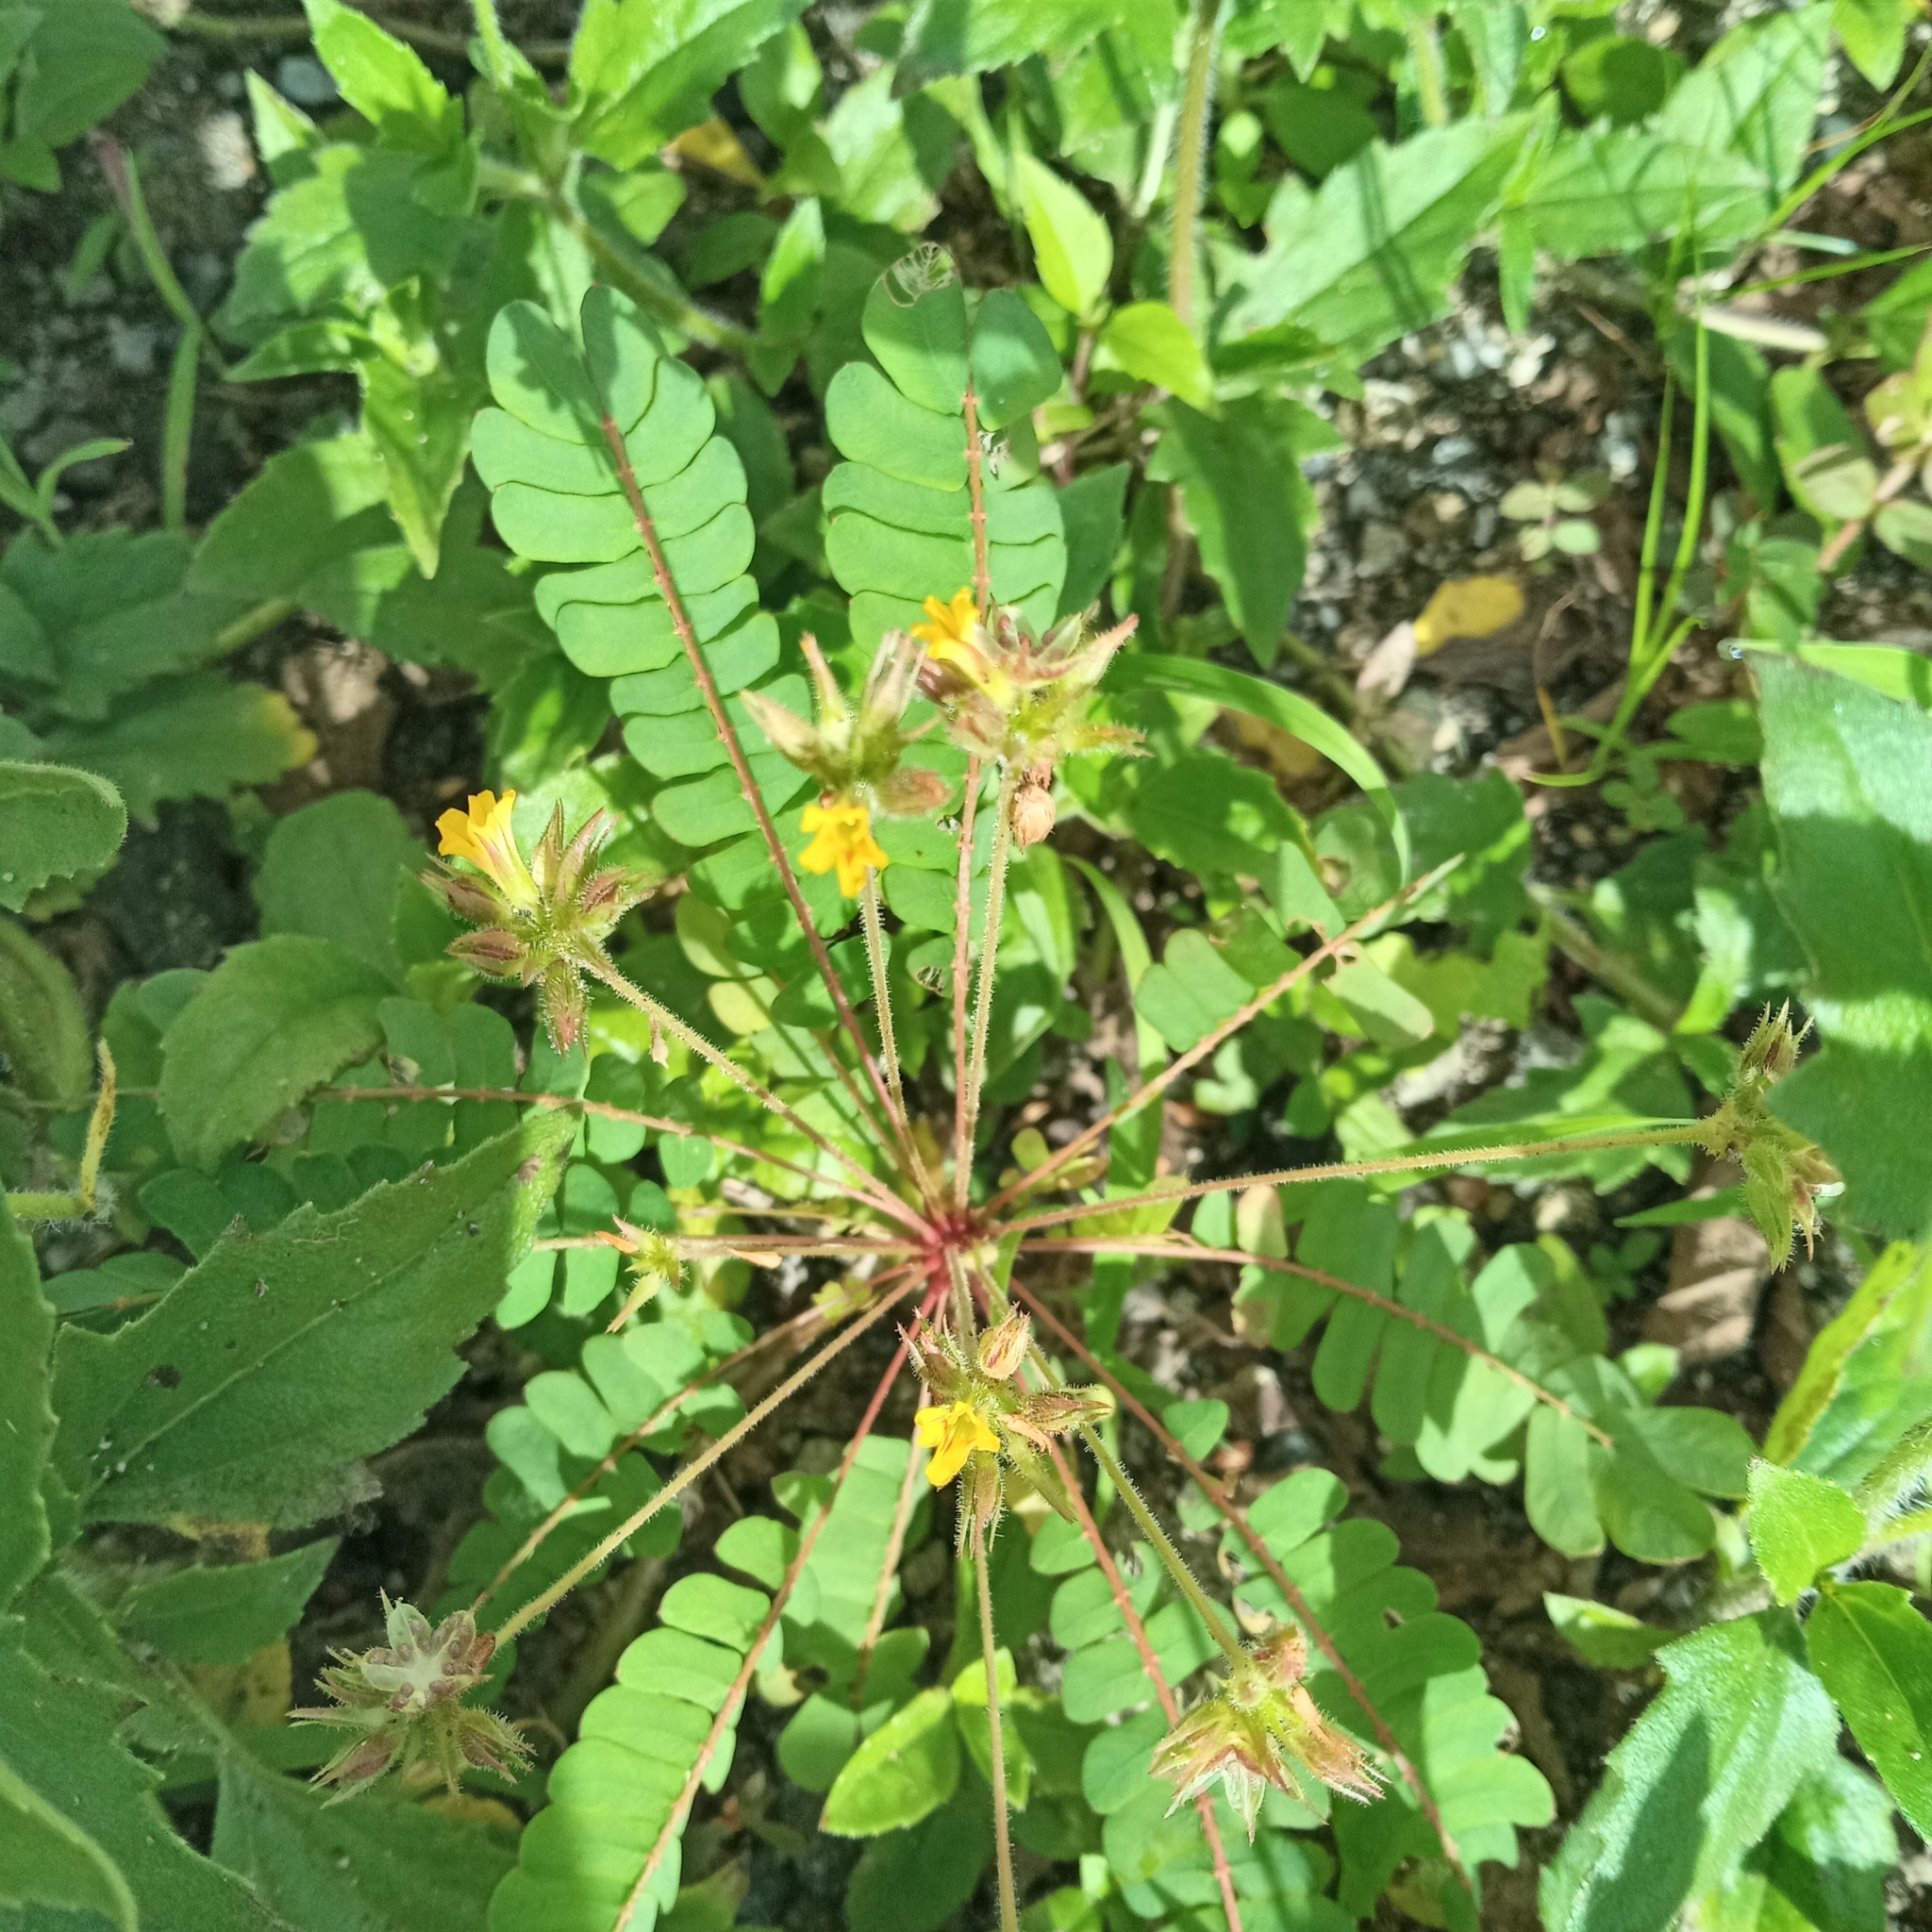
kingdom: Plantae
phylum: Tracheophyta
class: Magnoliopsida
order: Oxalidales
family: Oxalidaceae
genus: Biophytum
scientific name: Biophytum sensitivum
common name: Lifeplant
